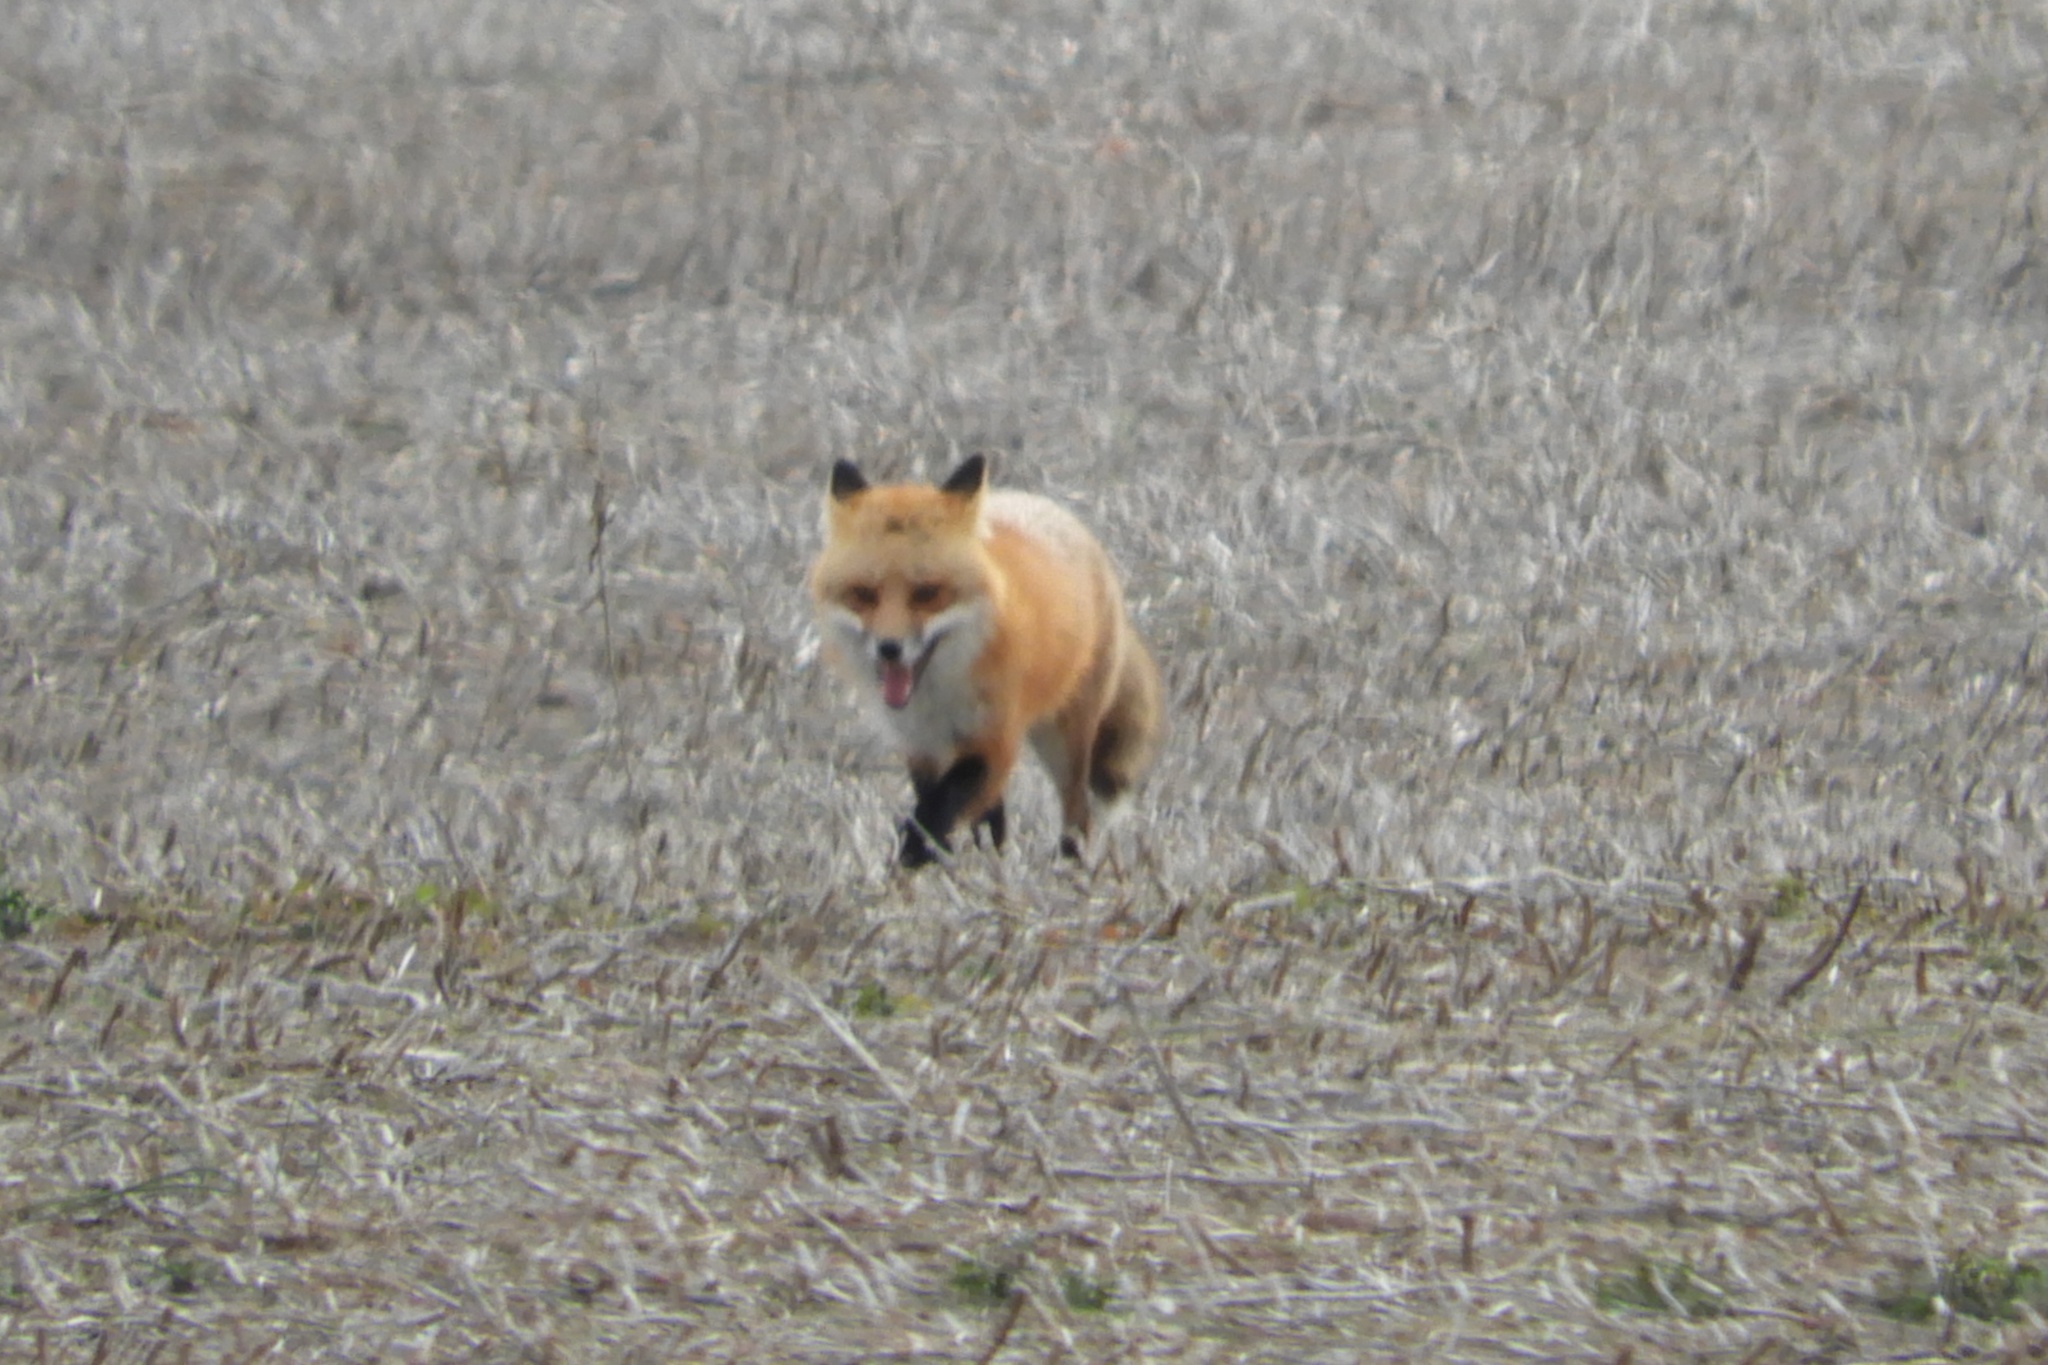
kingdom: Animalia
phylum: Chordata
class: Mammalia
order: Carnivora
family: Canidae
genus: Vulpes
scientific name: Vulpes vulpes
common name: Red fox
